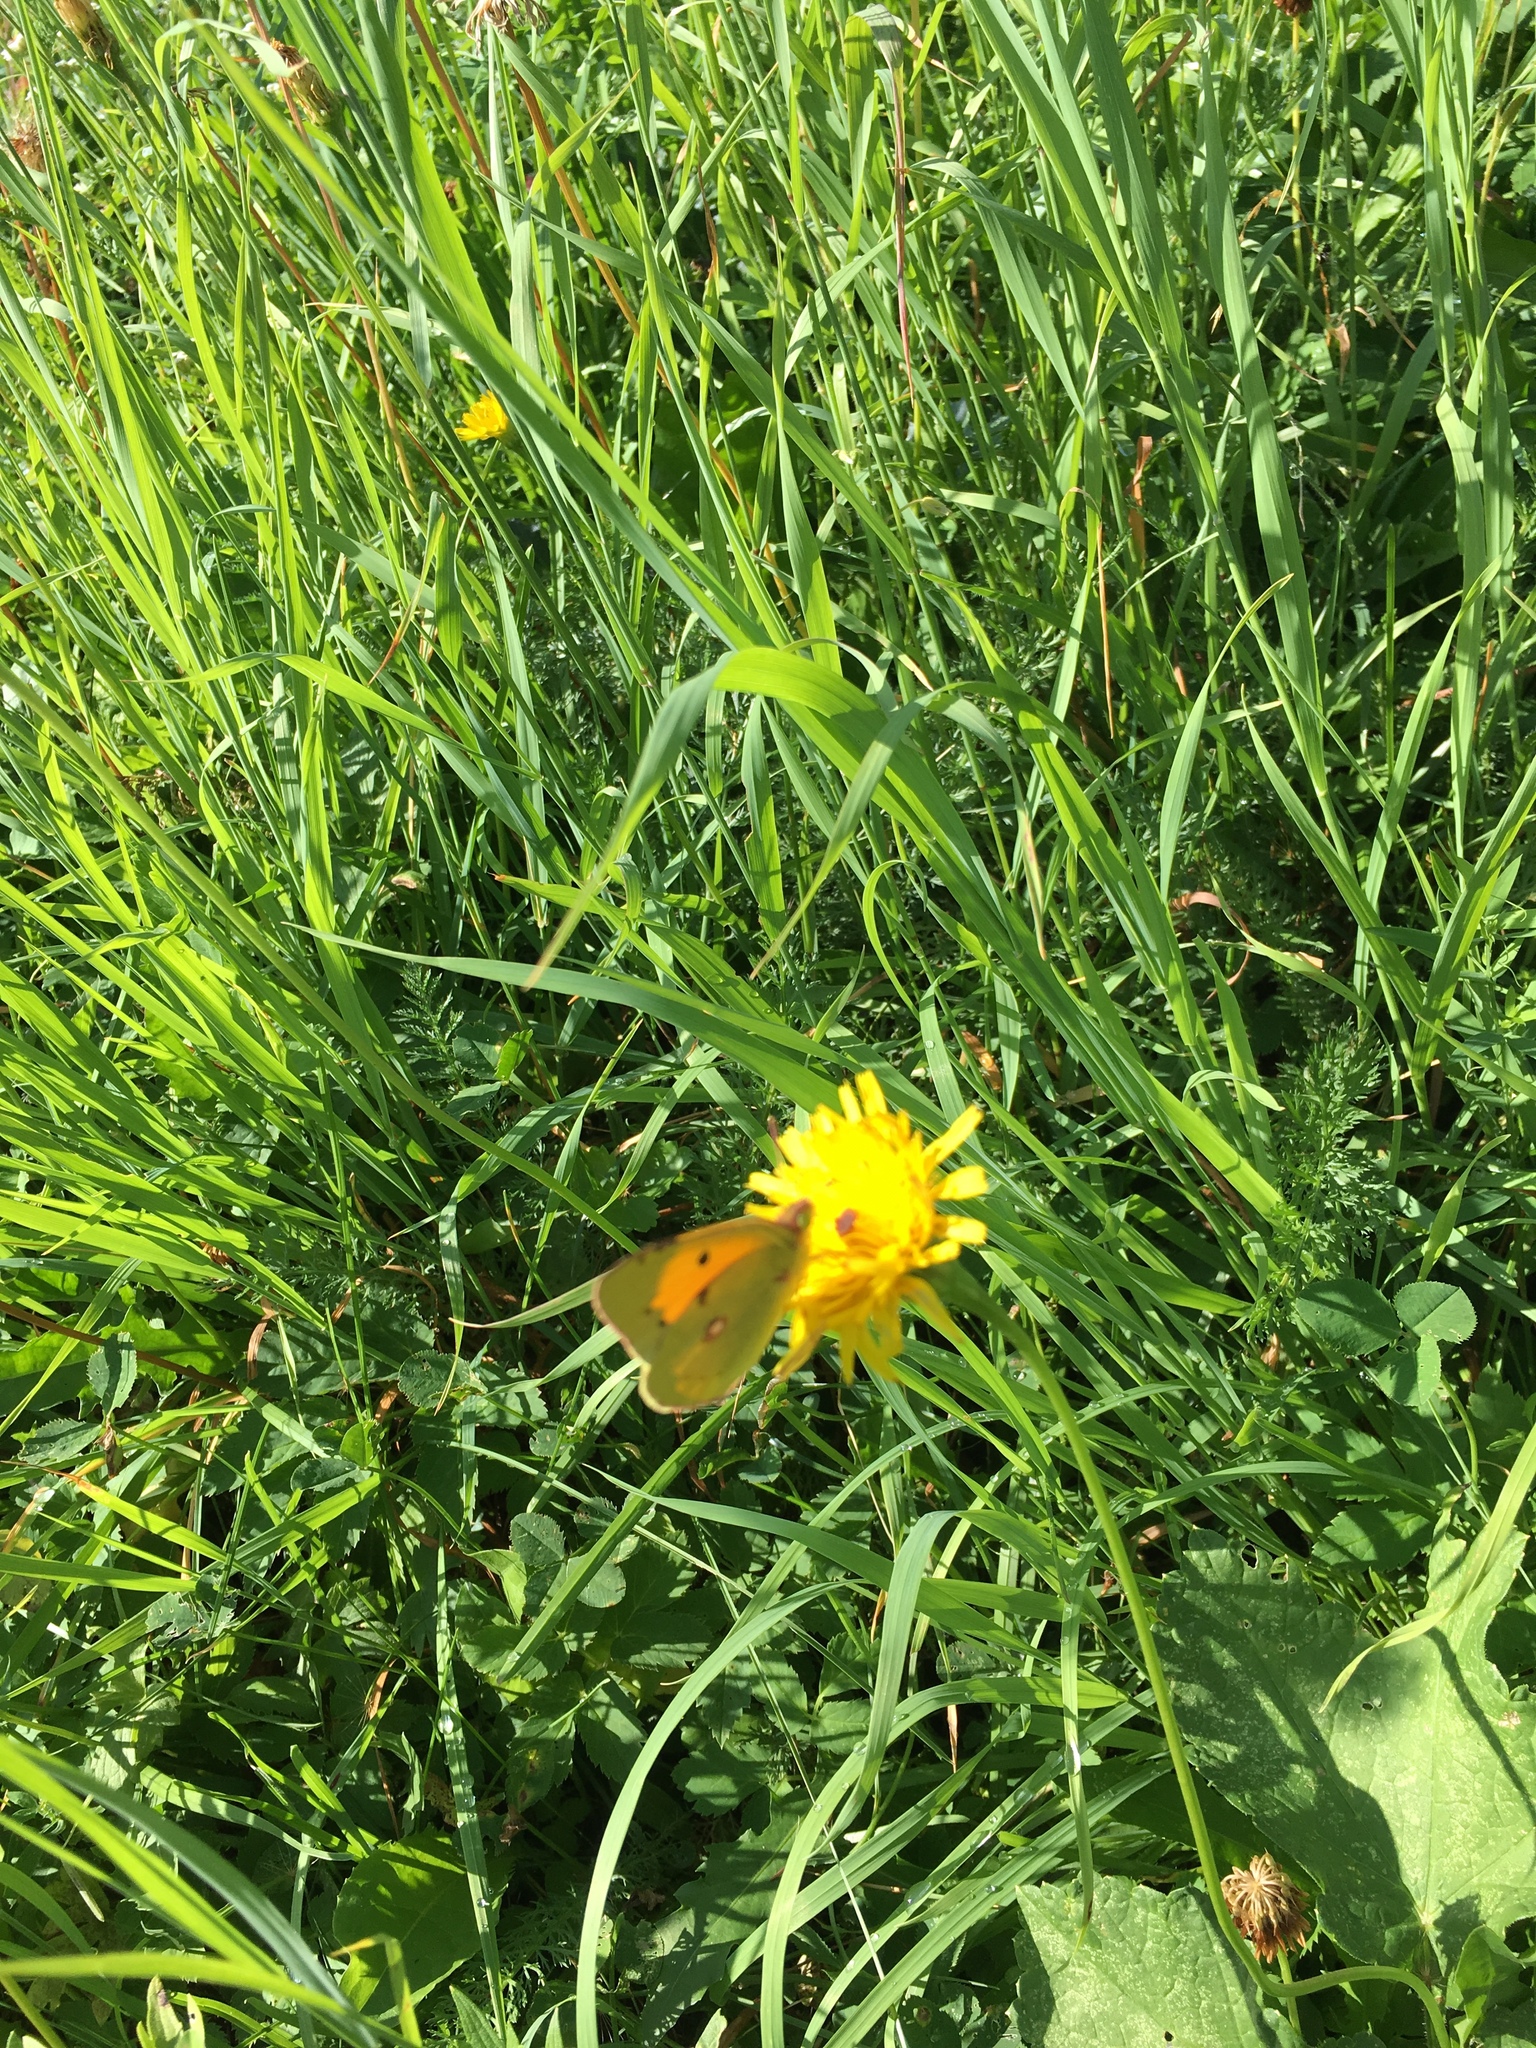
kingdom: Animalia
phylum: Arthropoda
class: Insecta
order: Lepidoptera
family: Pieridae
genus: Colias
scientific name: Colias croceus
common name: Clouded yellow
